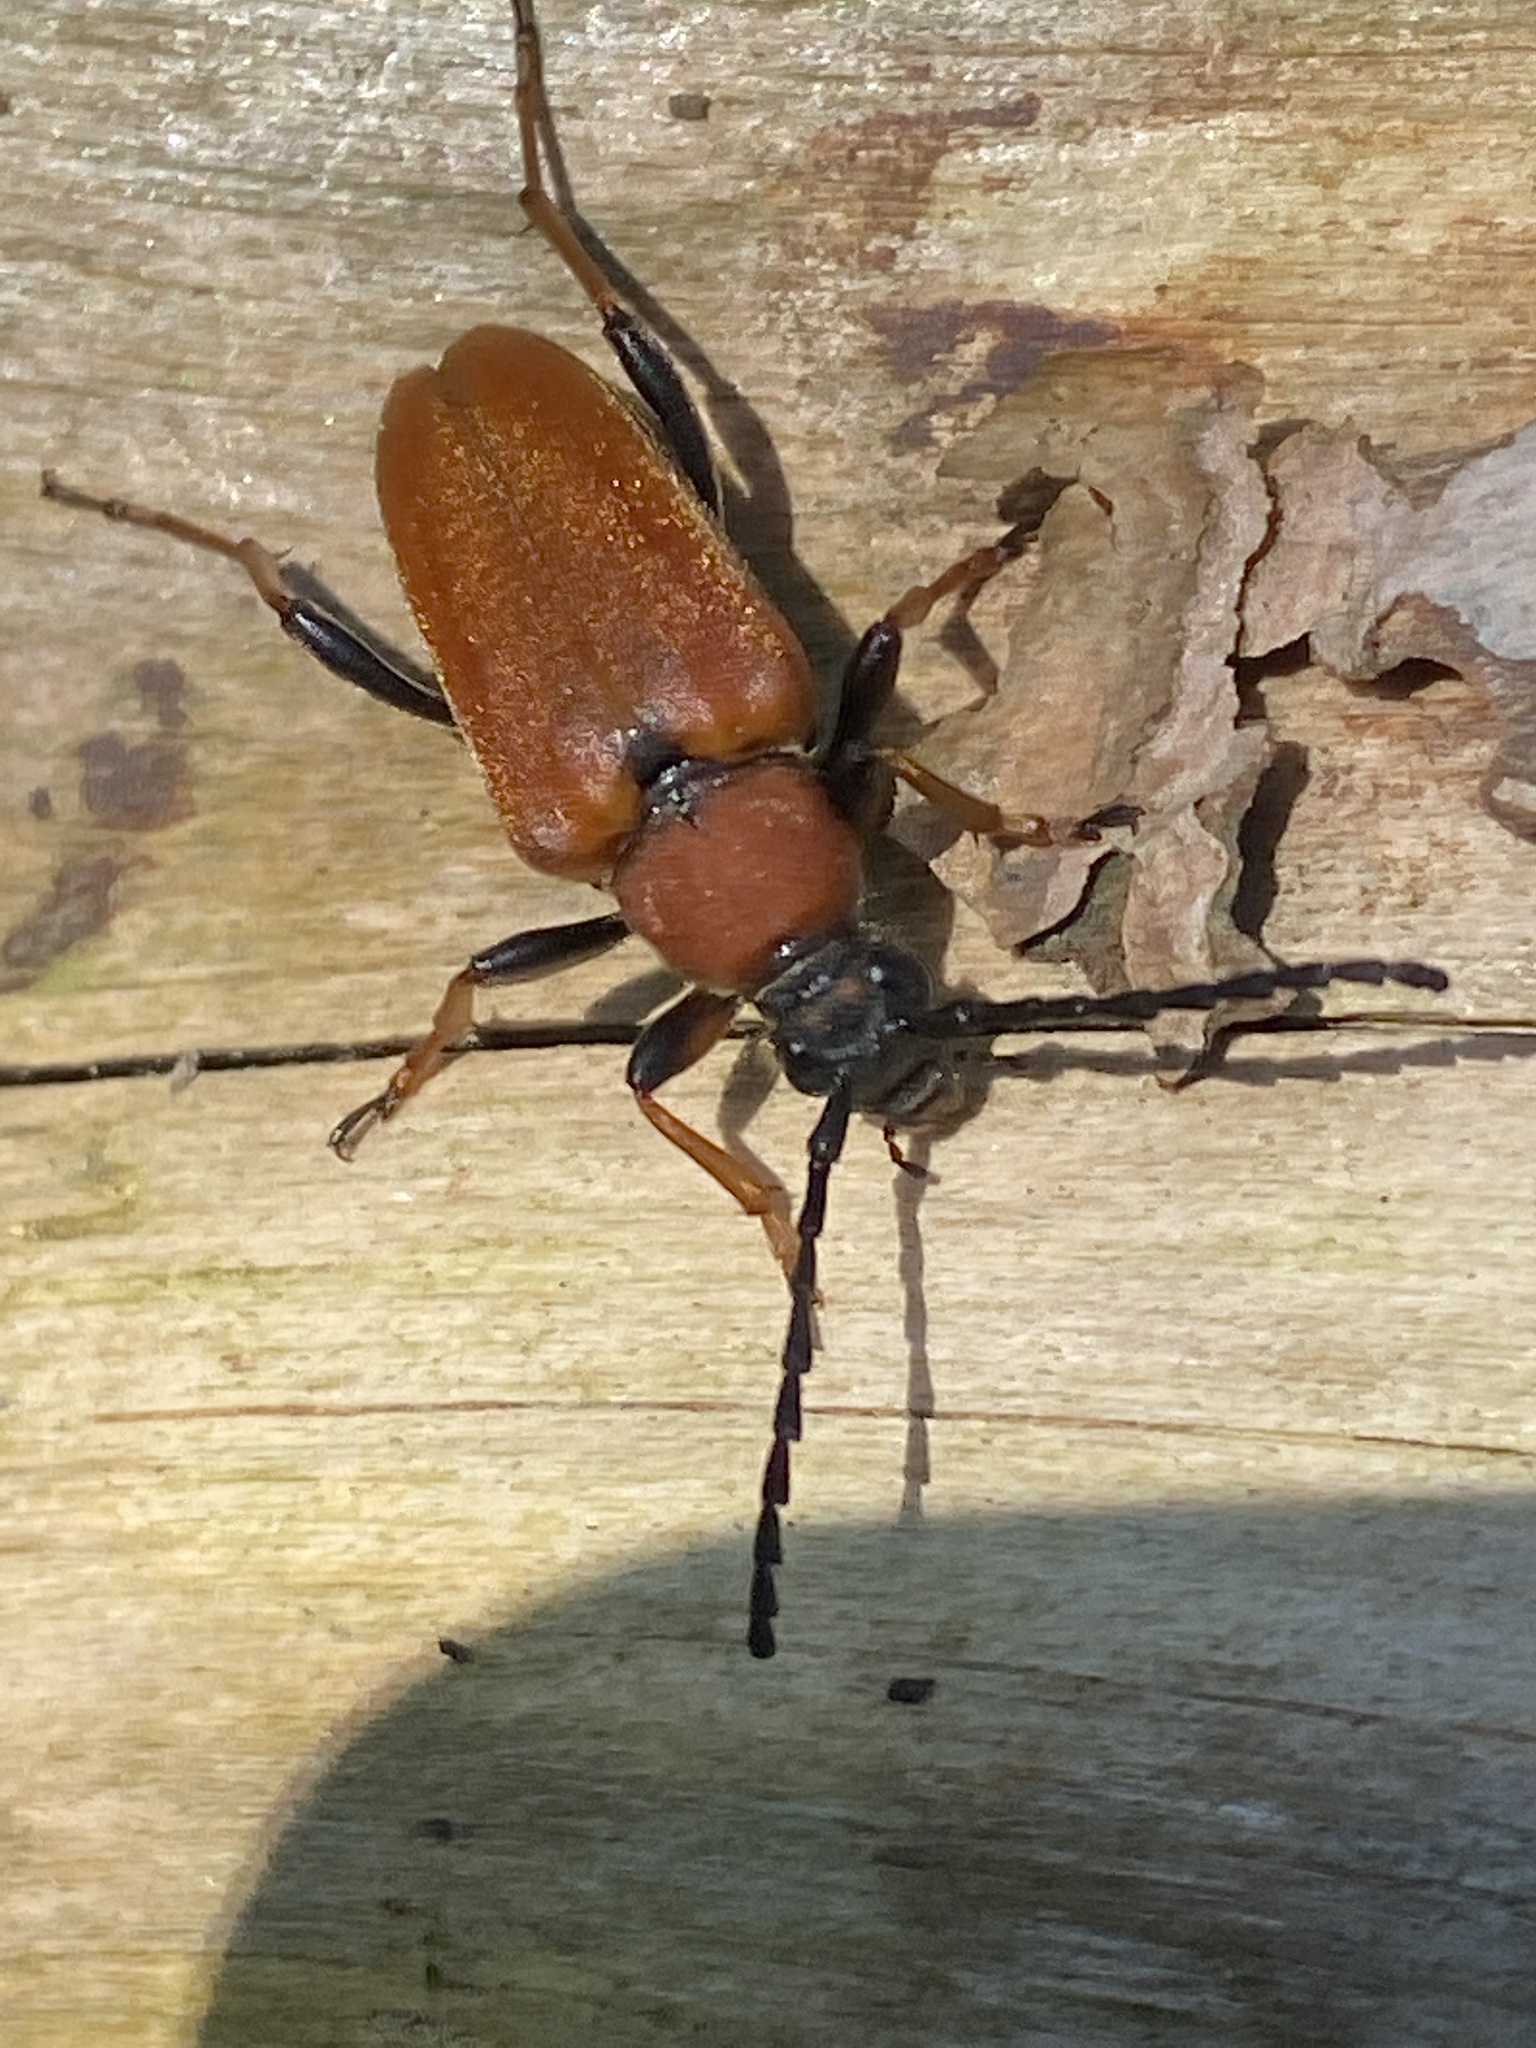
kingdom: Animalia
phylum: Arthropoda
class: Insecta
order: Coleoptera
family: Cerambycidae
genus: Stictoleptura
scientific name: Stictoleptura rubra
